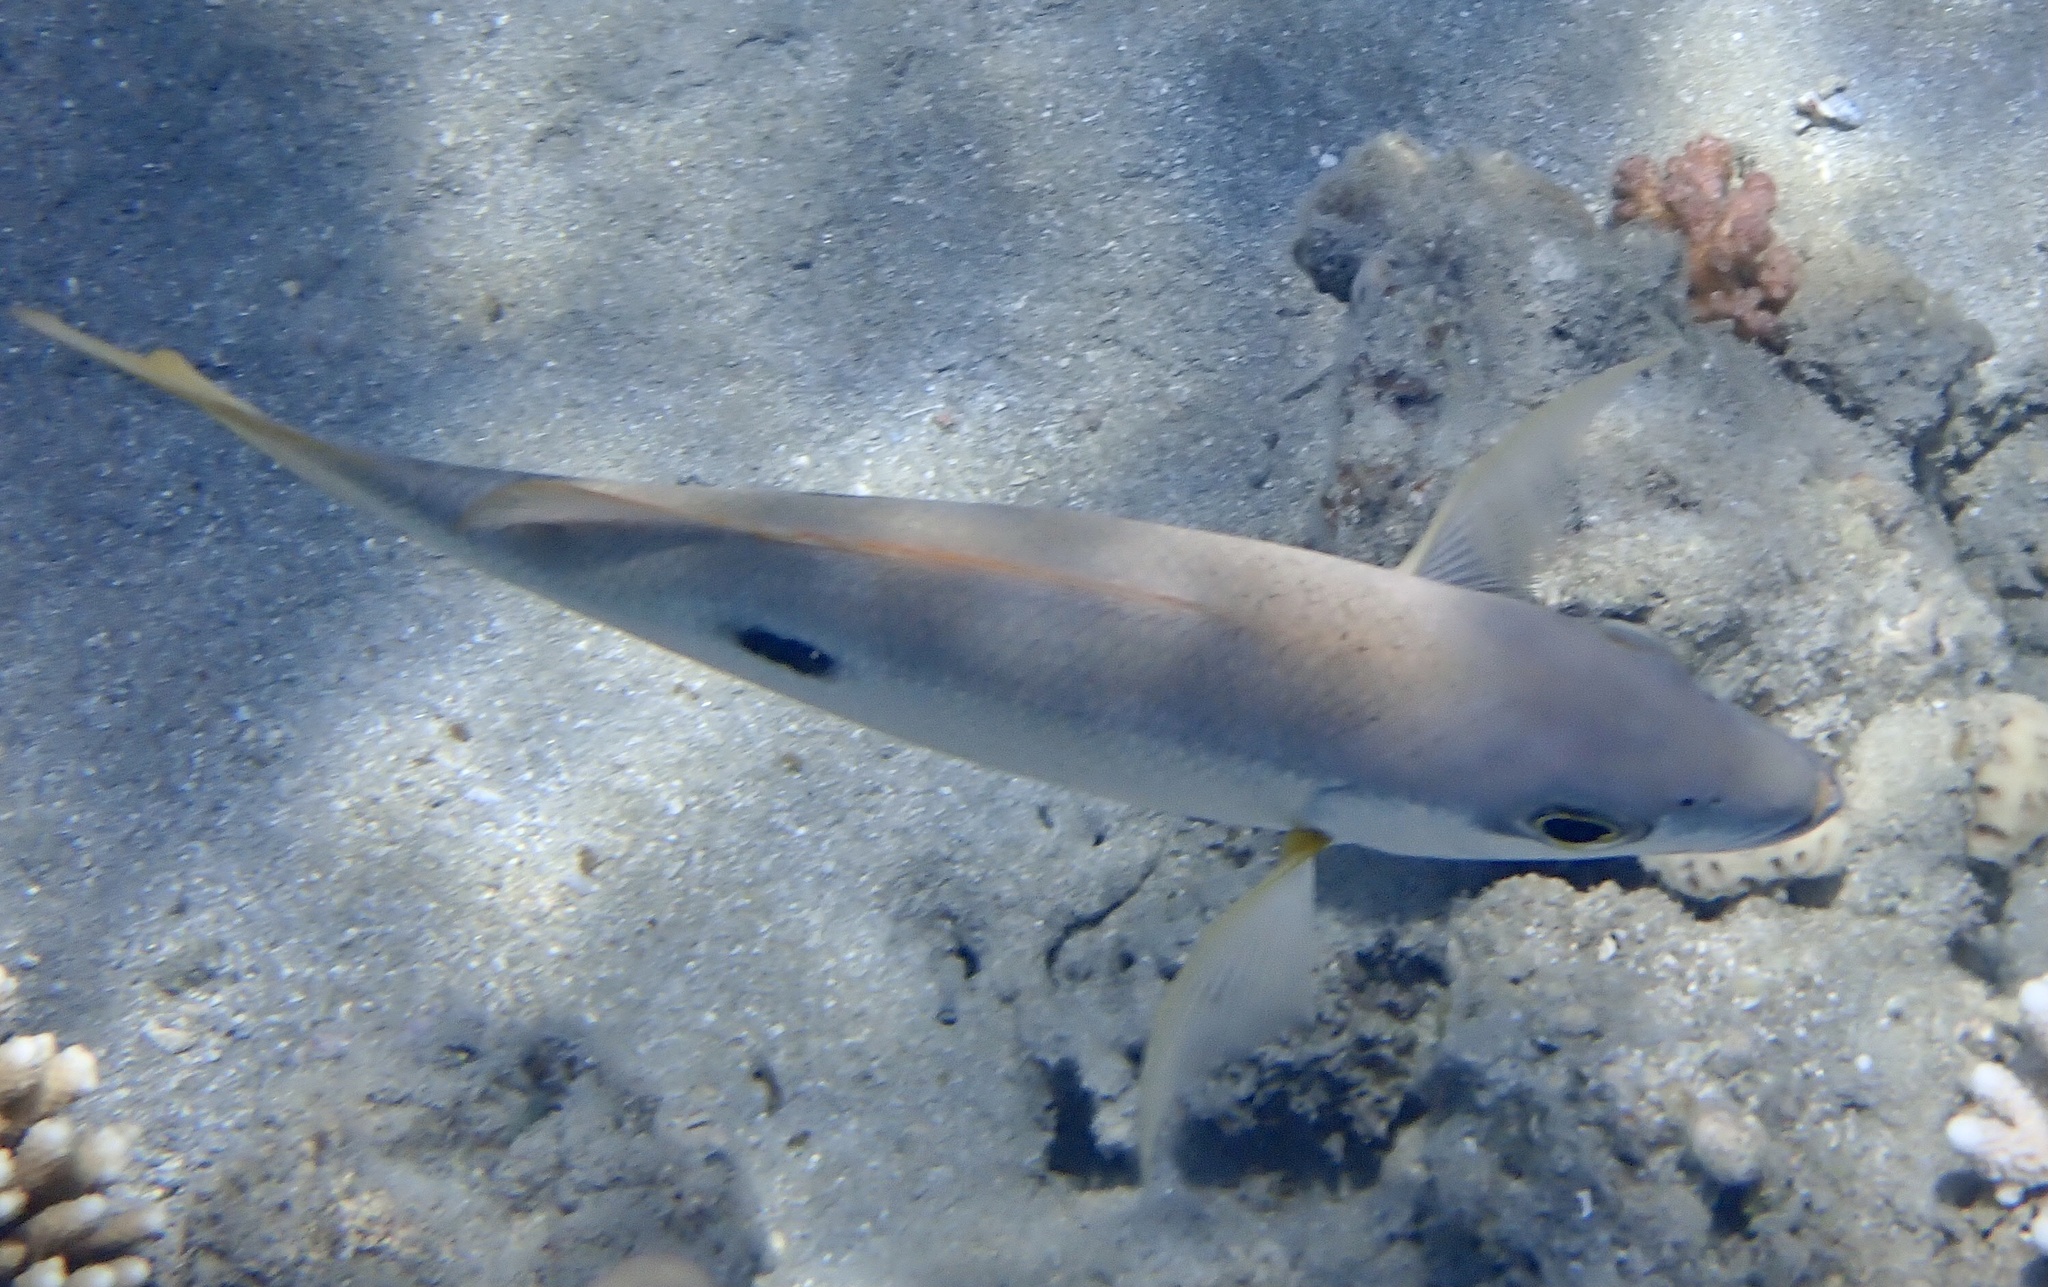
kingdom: Animalia
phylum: Chordata
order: Perciformes
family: Lutjanidae
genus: Lutjanus
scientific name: Lutjanus ehrenbergii
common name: Blackspot snapper
